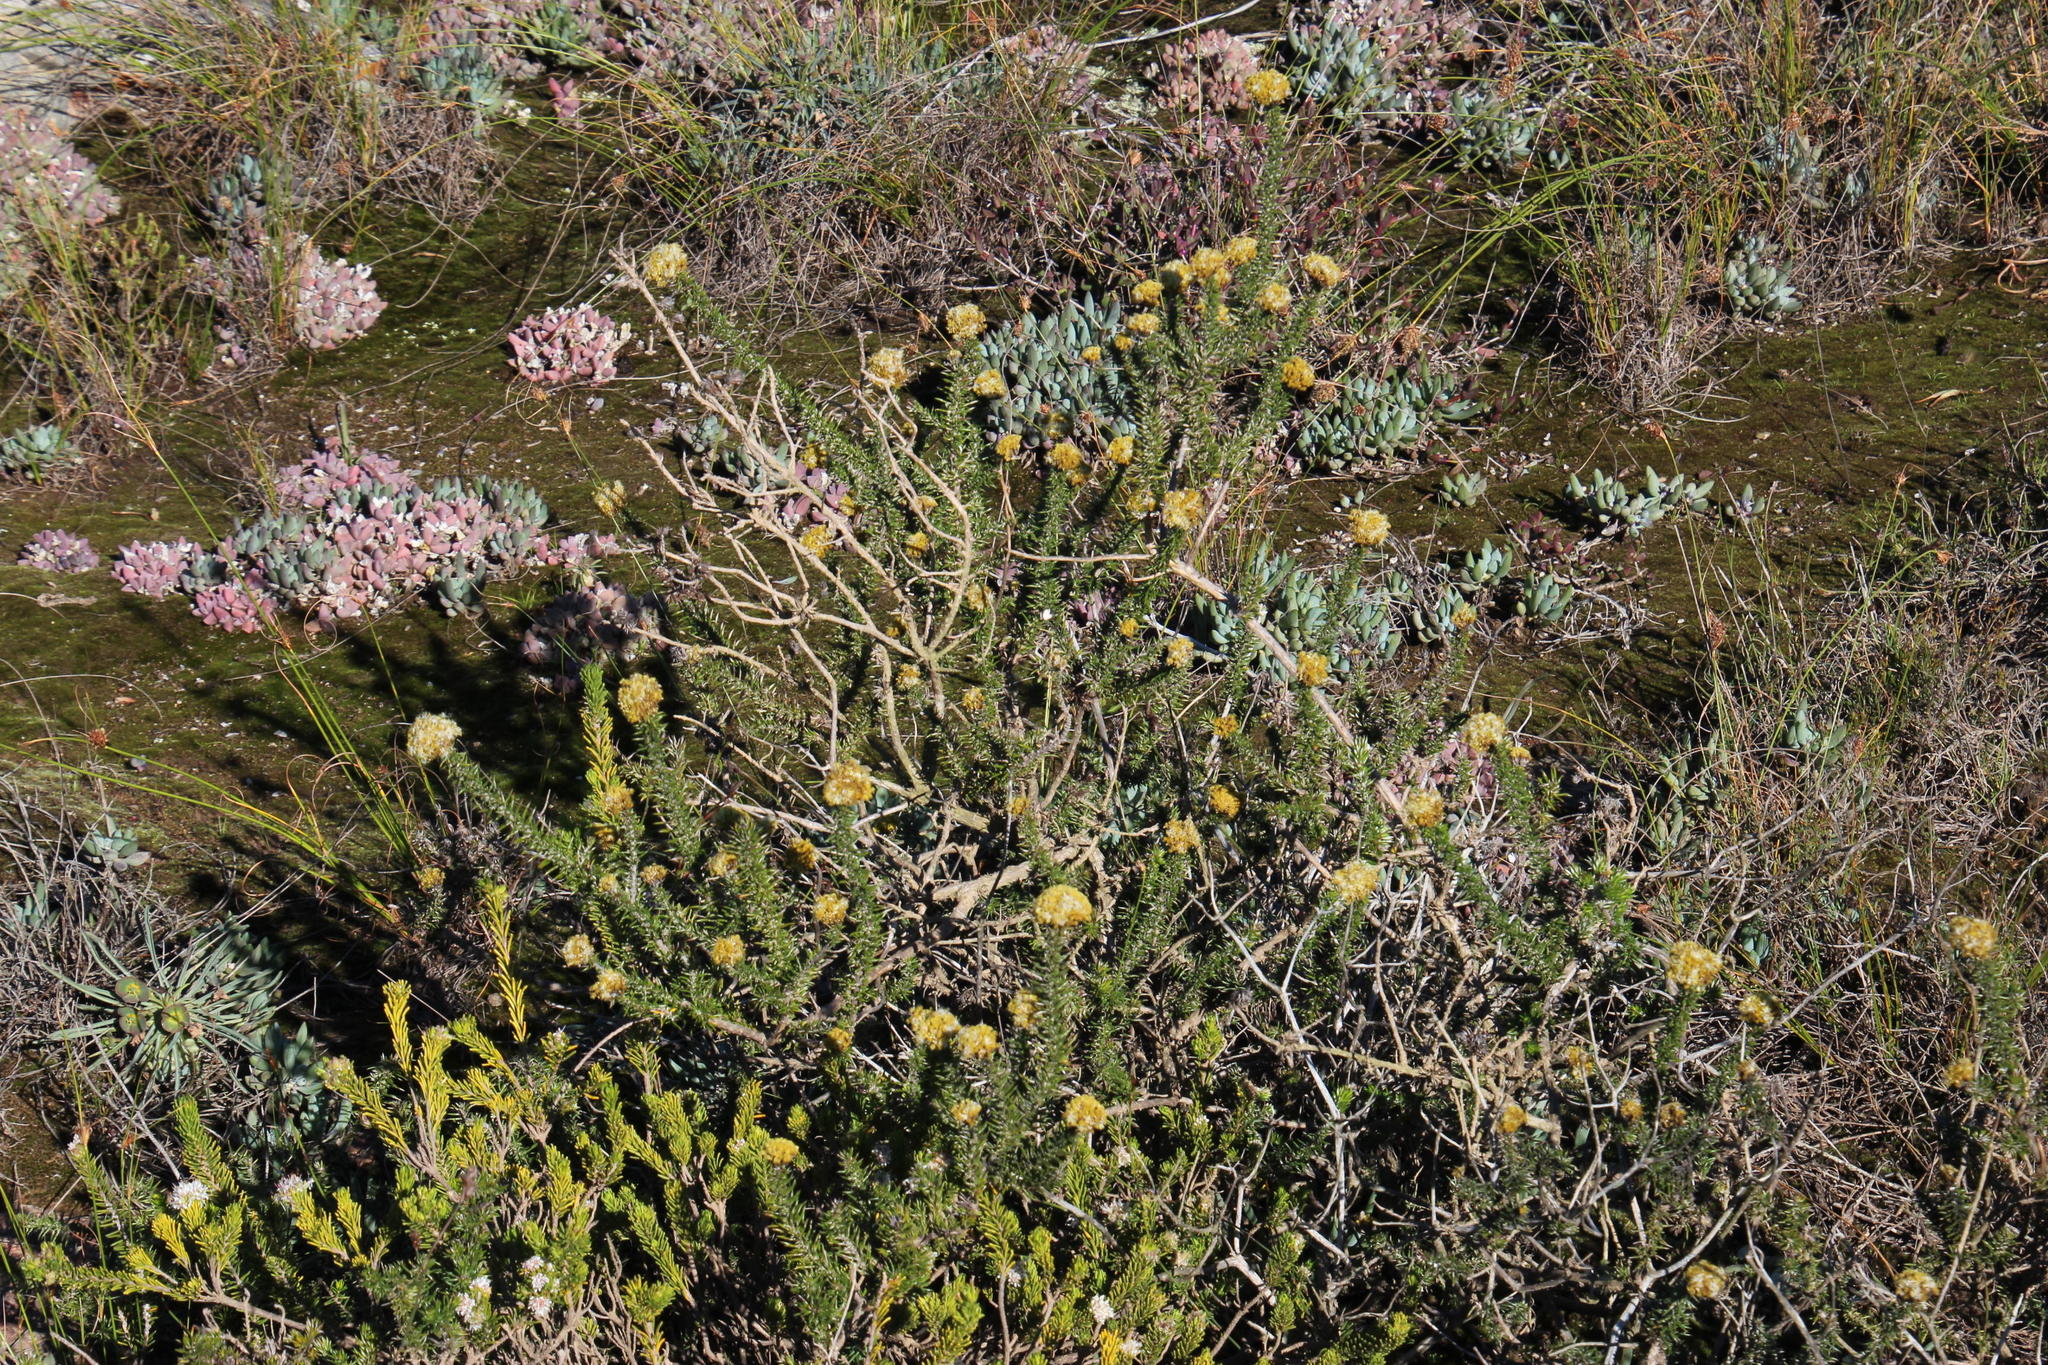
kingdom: Plantae
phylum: Tracheophyta
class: Magnoliopsida
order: Asterales
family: Asteraceae
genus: Metalasia
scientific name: Metalasia aurea
